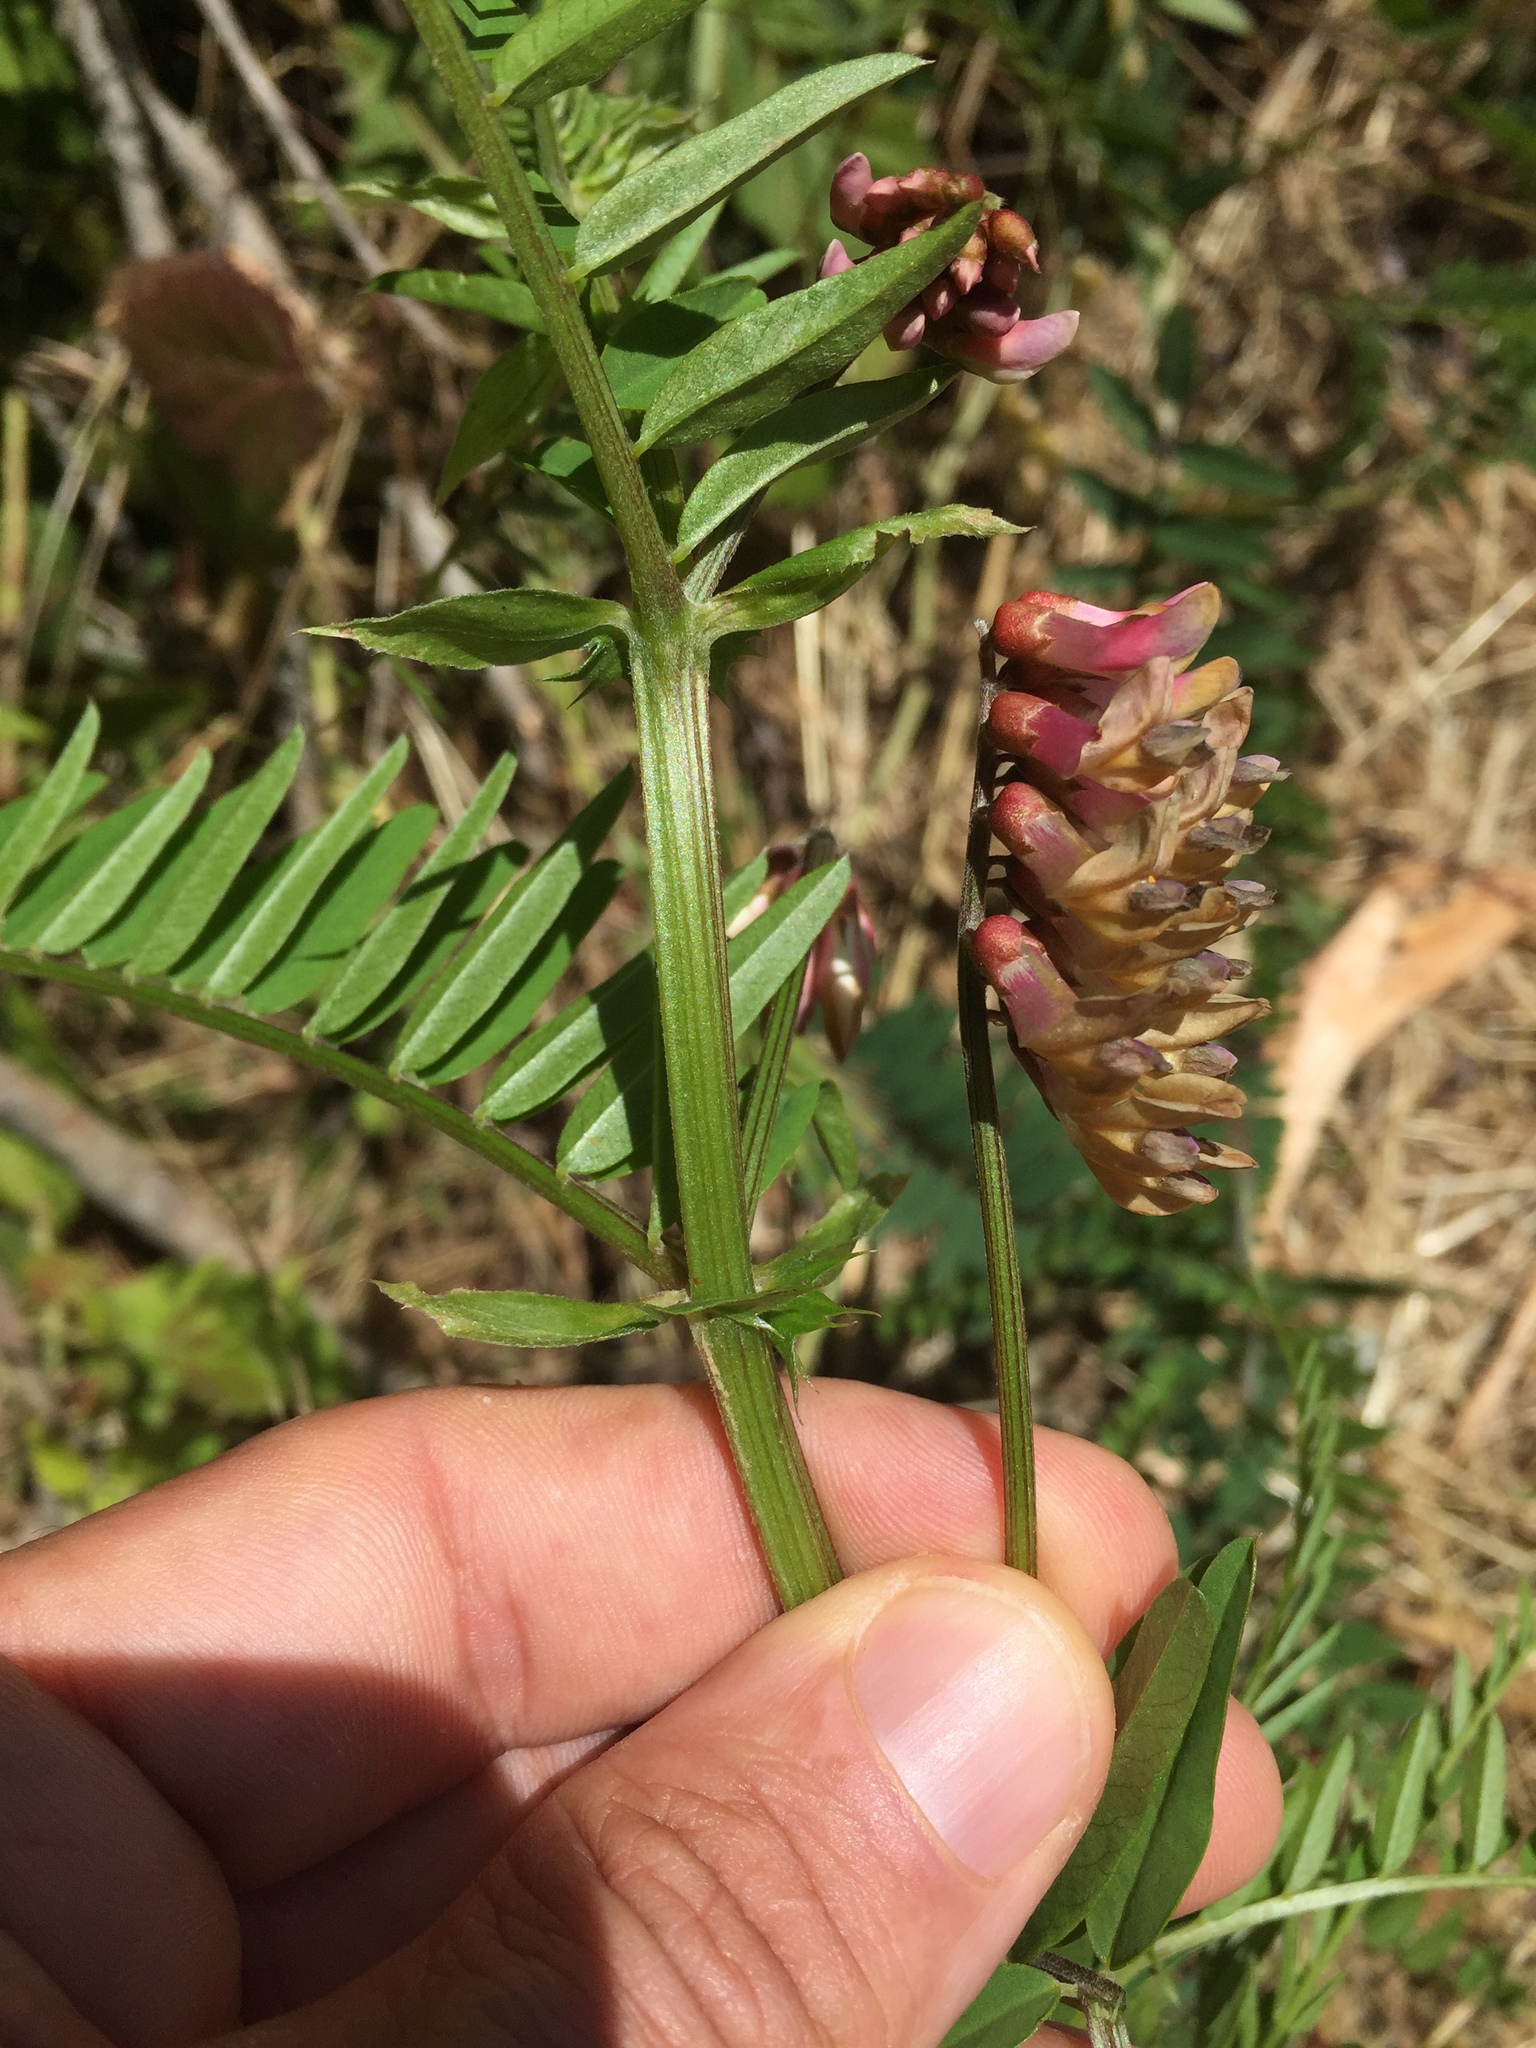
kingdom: Plantae
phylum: Tracheophyta
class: Magnoliopsida
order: Fabales
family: Fabaceae
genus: Vicia
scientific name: Vicia
